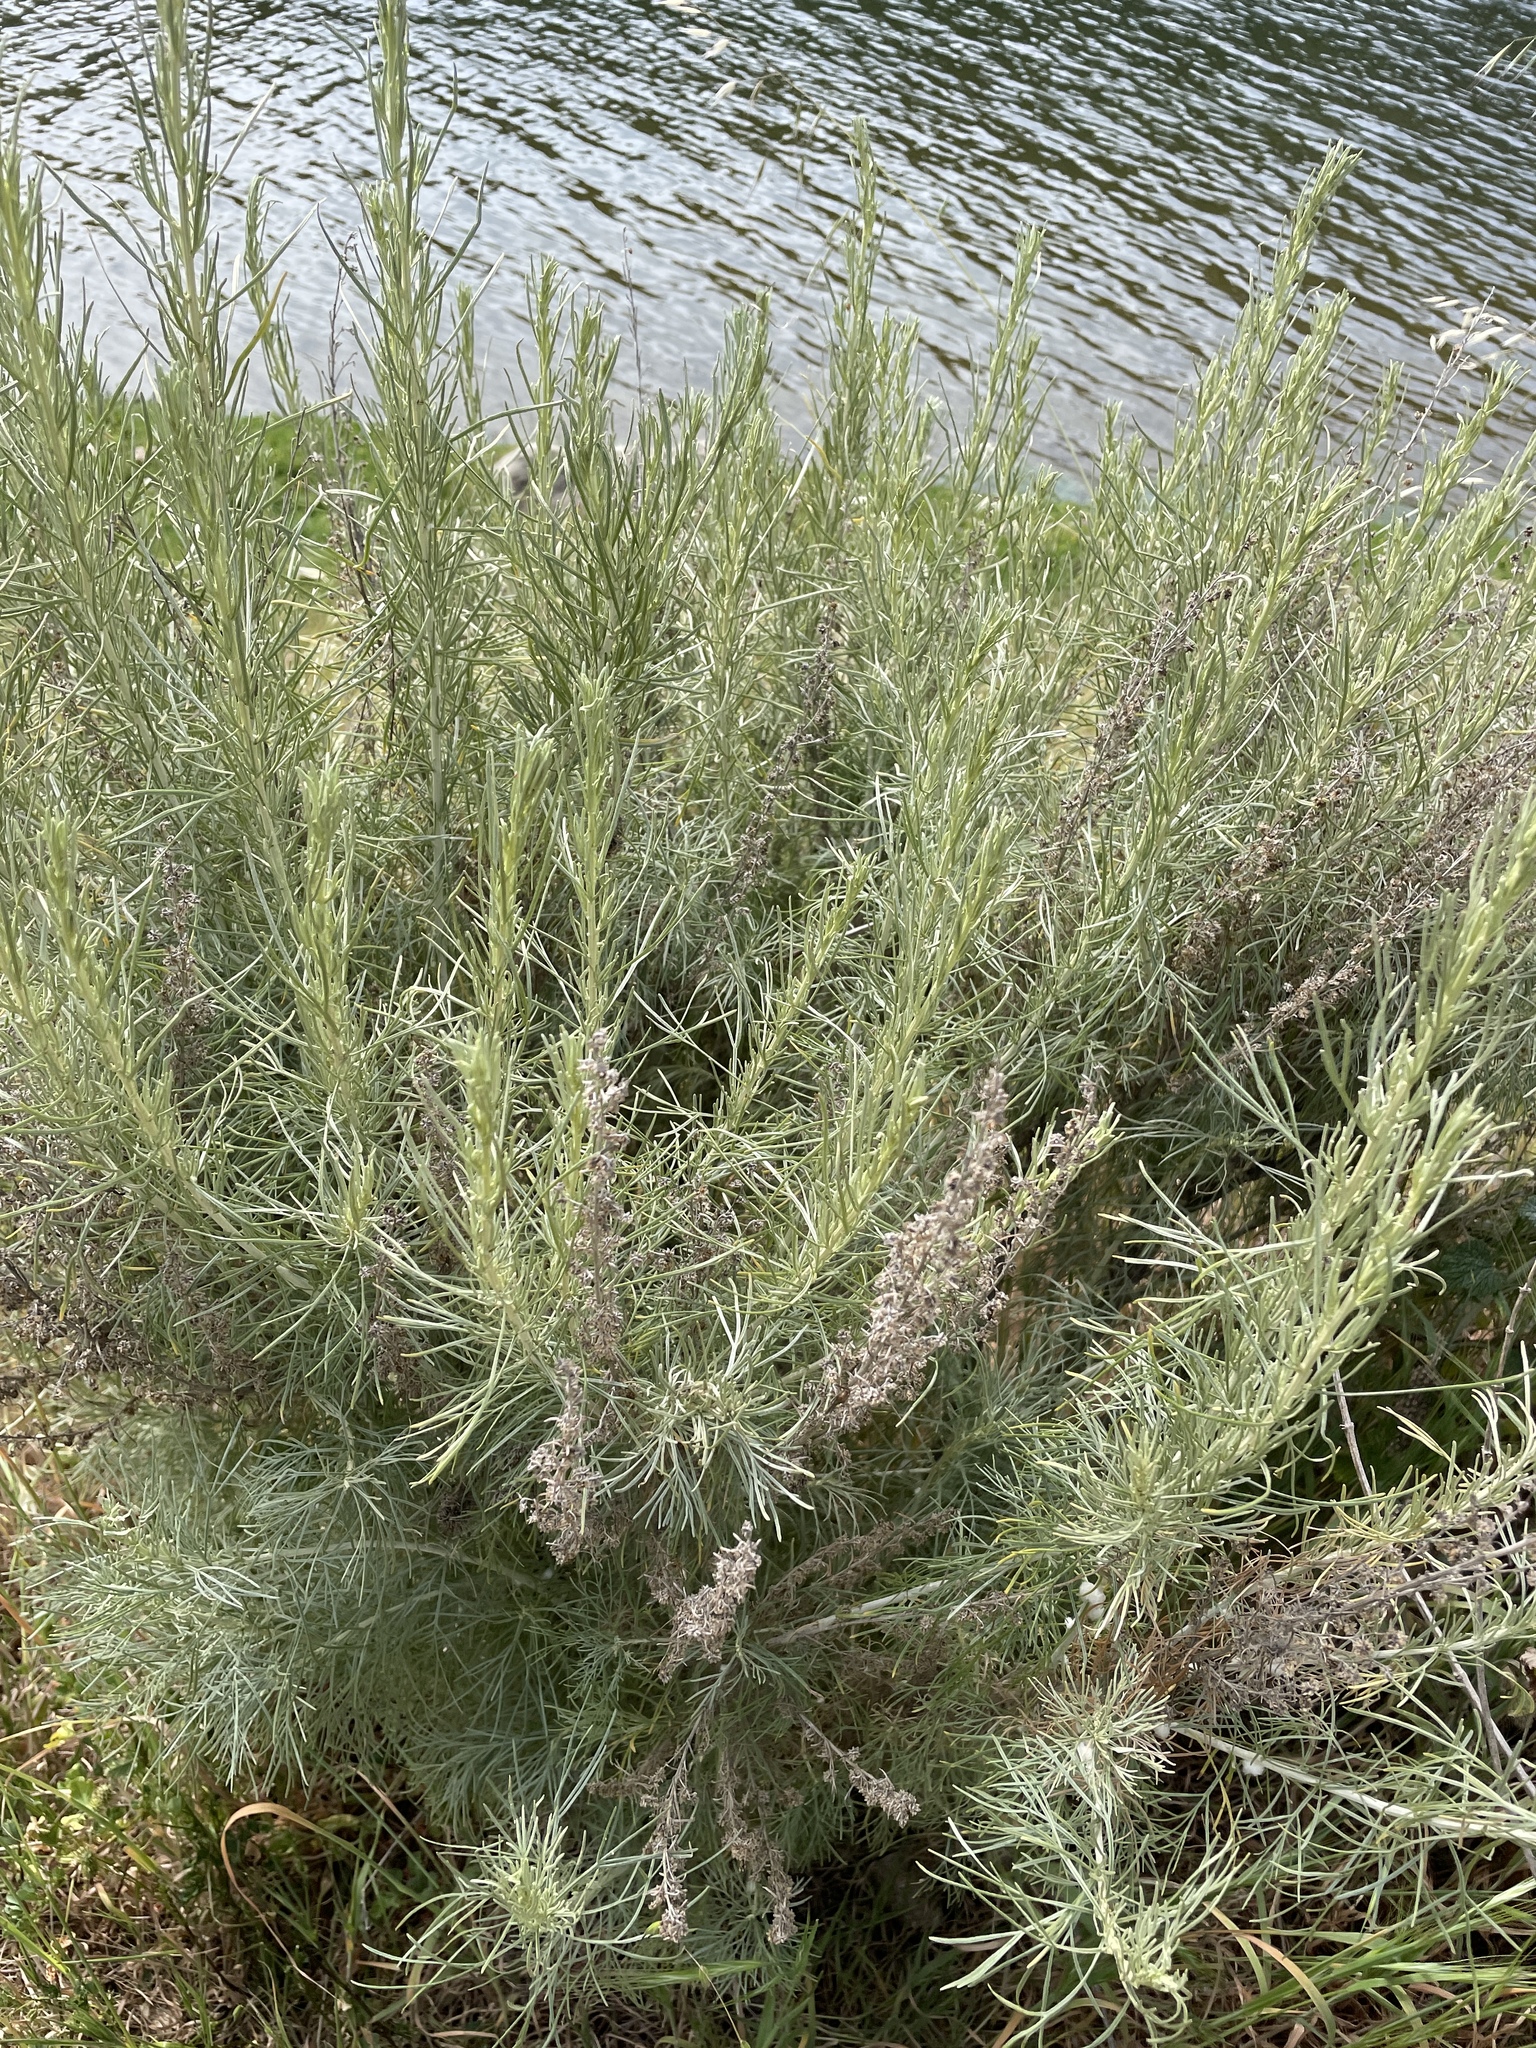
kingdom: Plantae
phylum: Tracheophyta
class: Magnoliopsida
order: Asterales
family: Asteraceae
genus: Artemisia
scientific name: Artemisia californica
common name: California sagebrush
